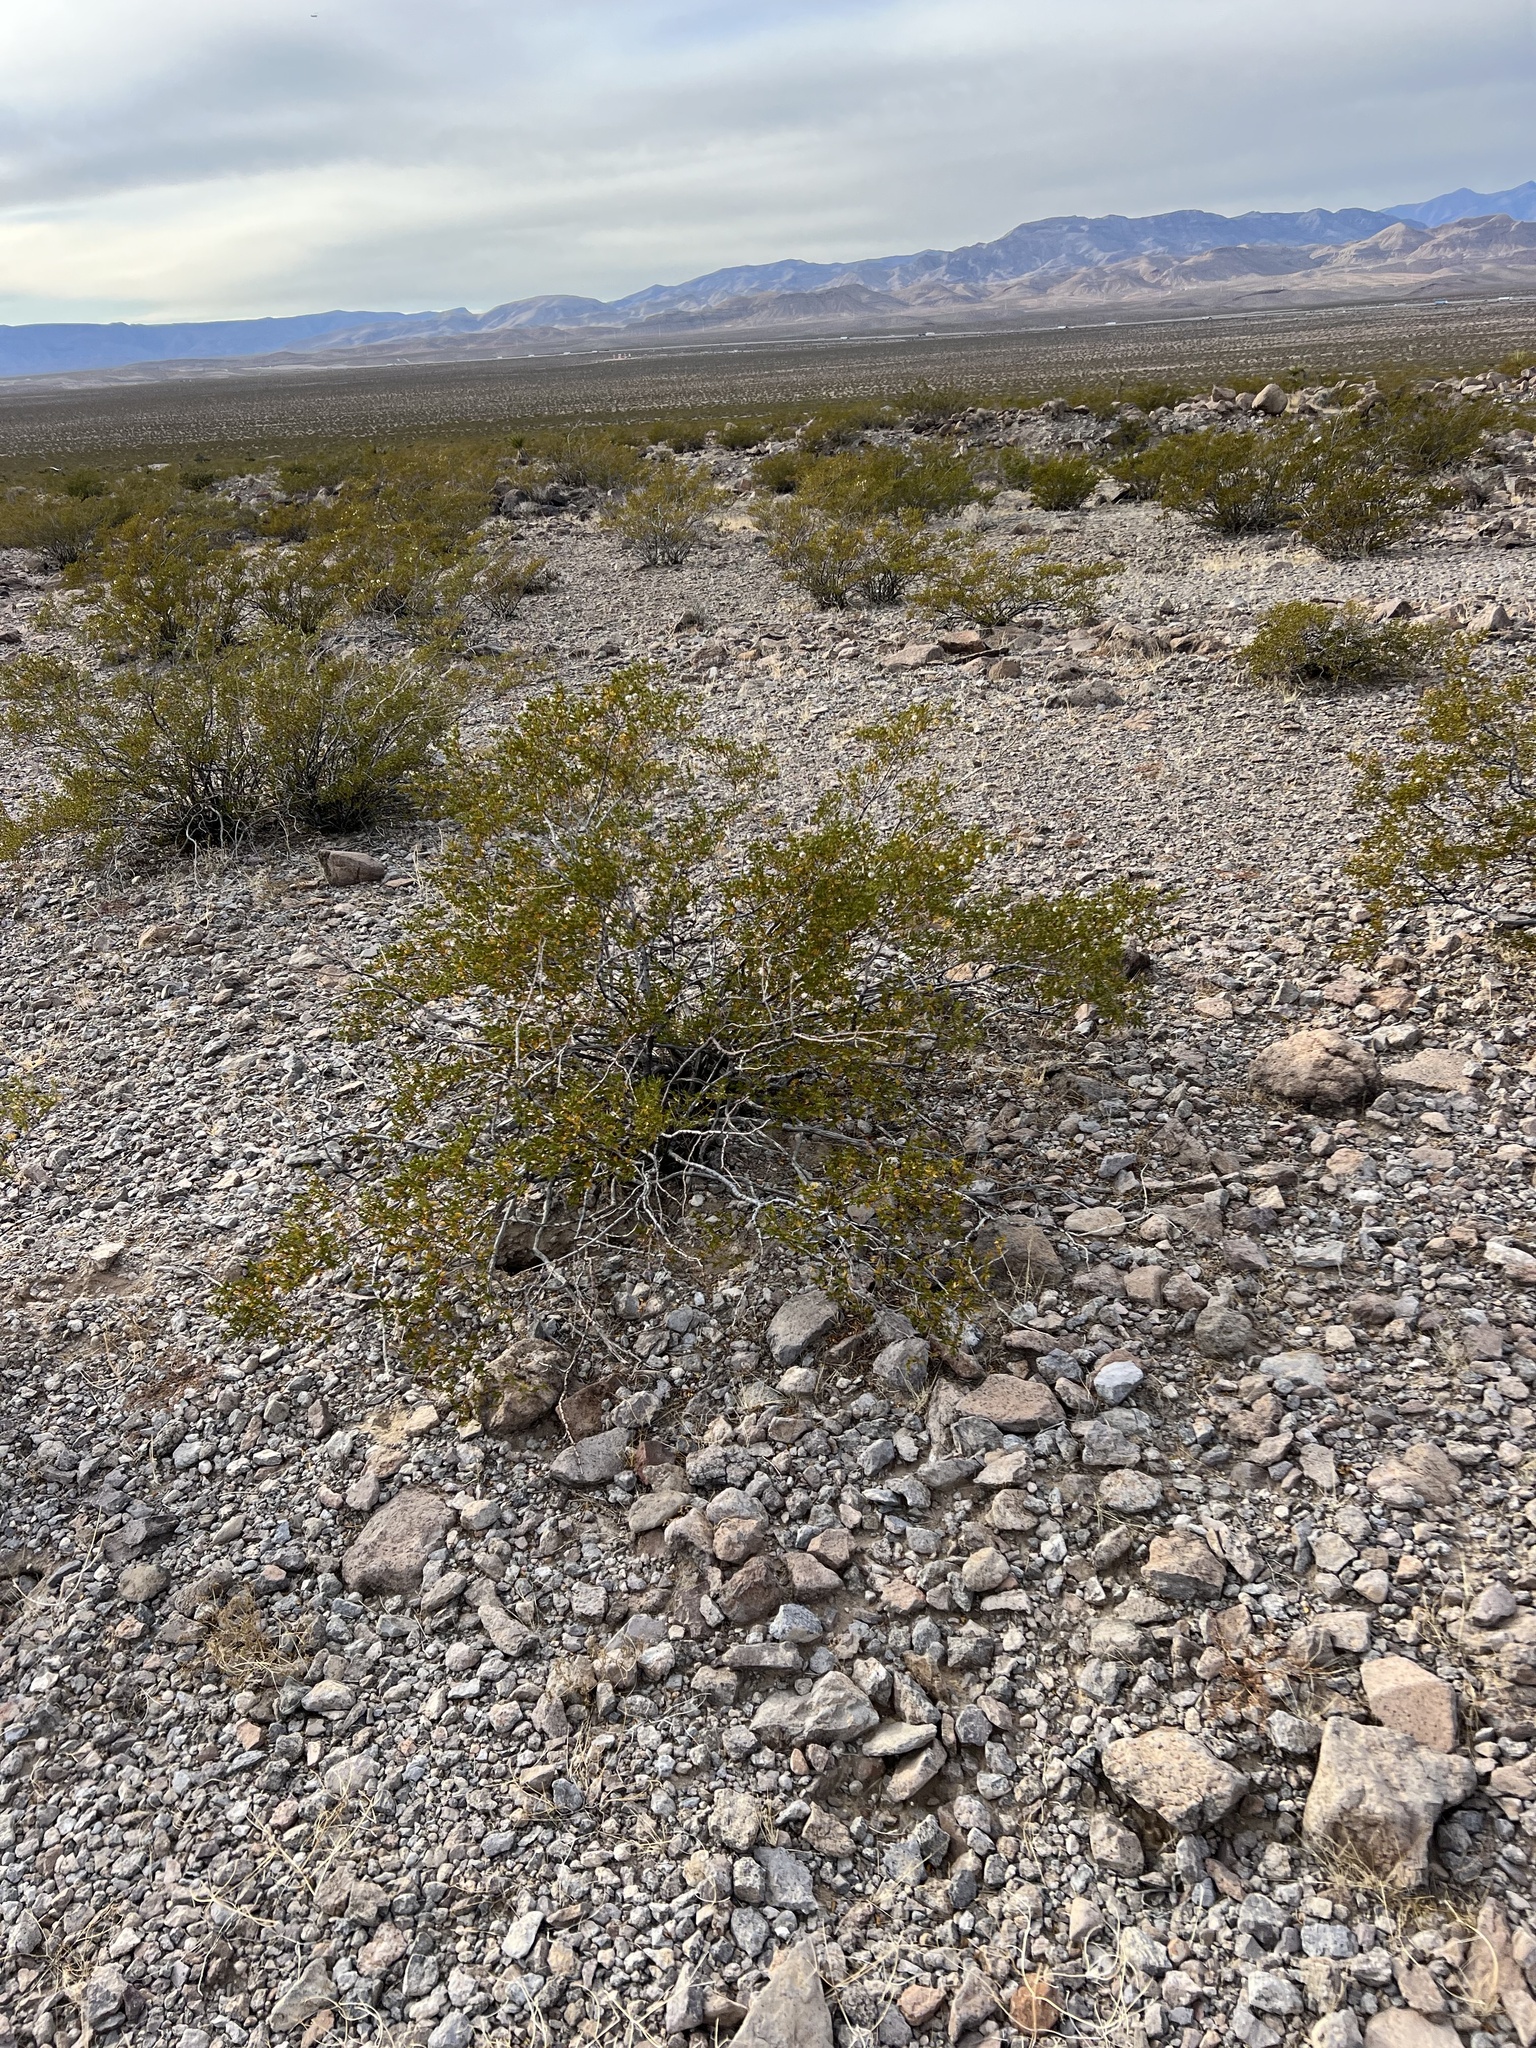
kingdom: Plantae
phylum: Tracheophyta
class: Magnoliopsida
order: Zygophyllales
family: Zygophyllaceae
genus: Larrea
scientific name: Larrea tridentata
